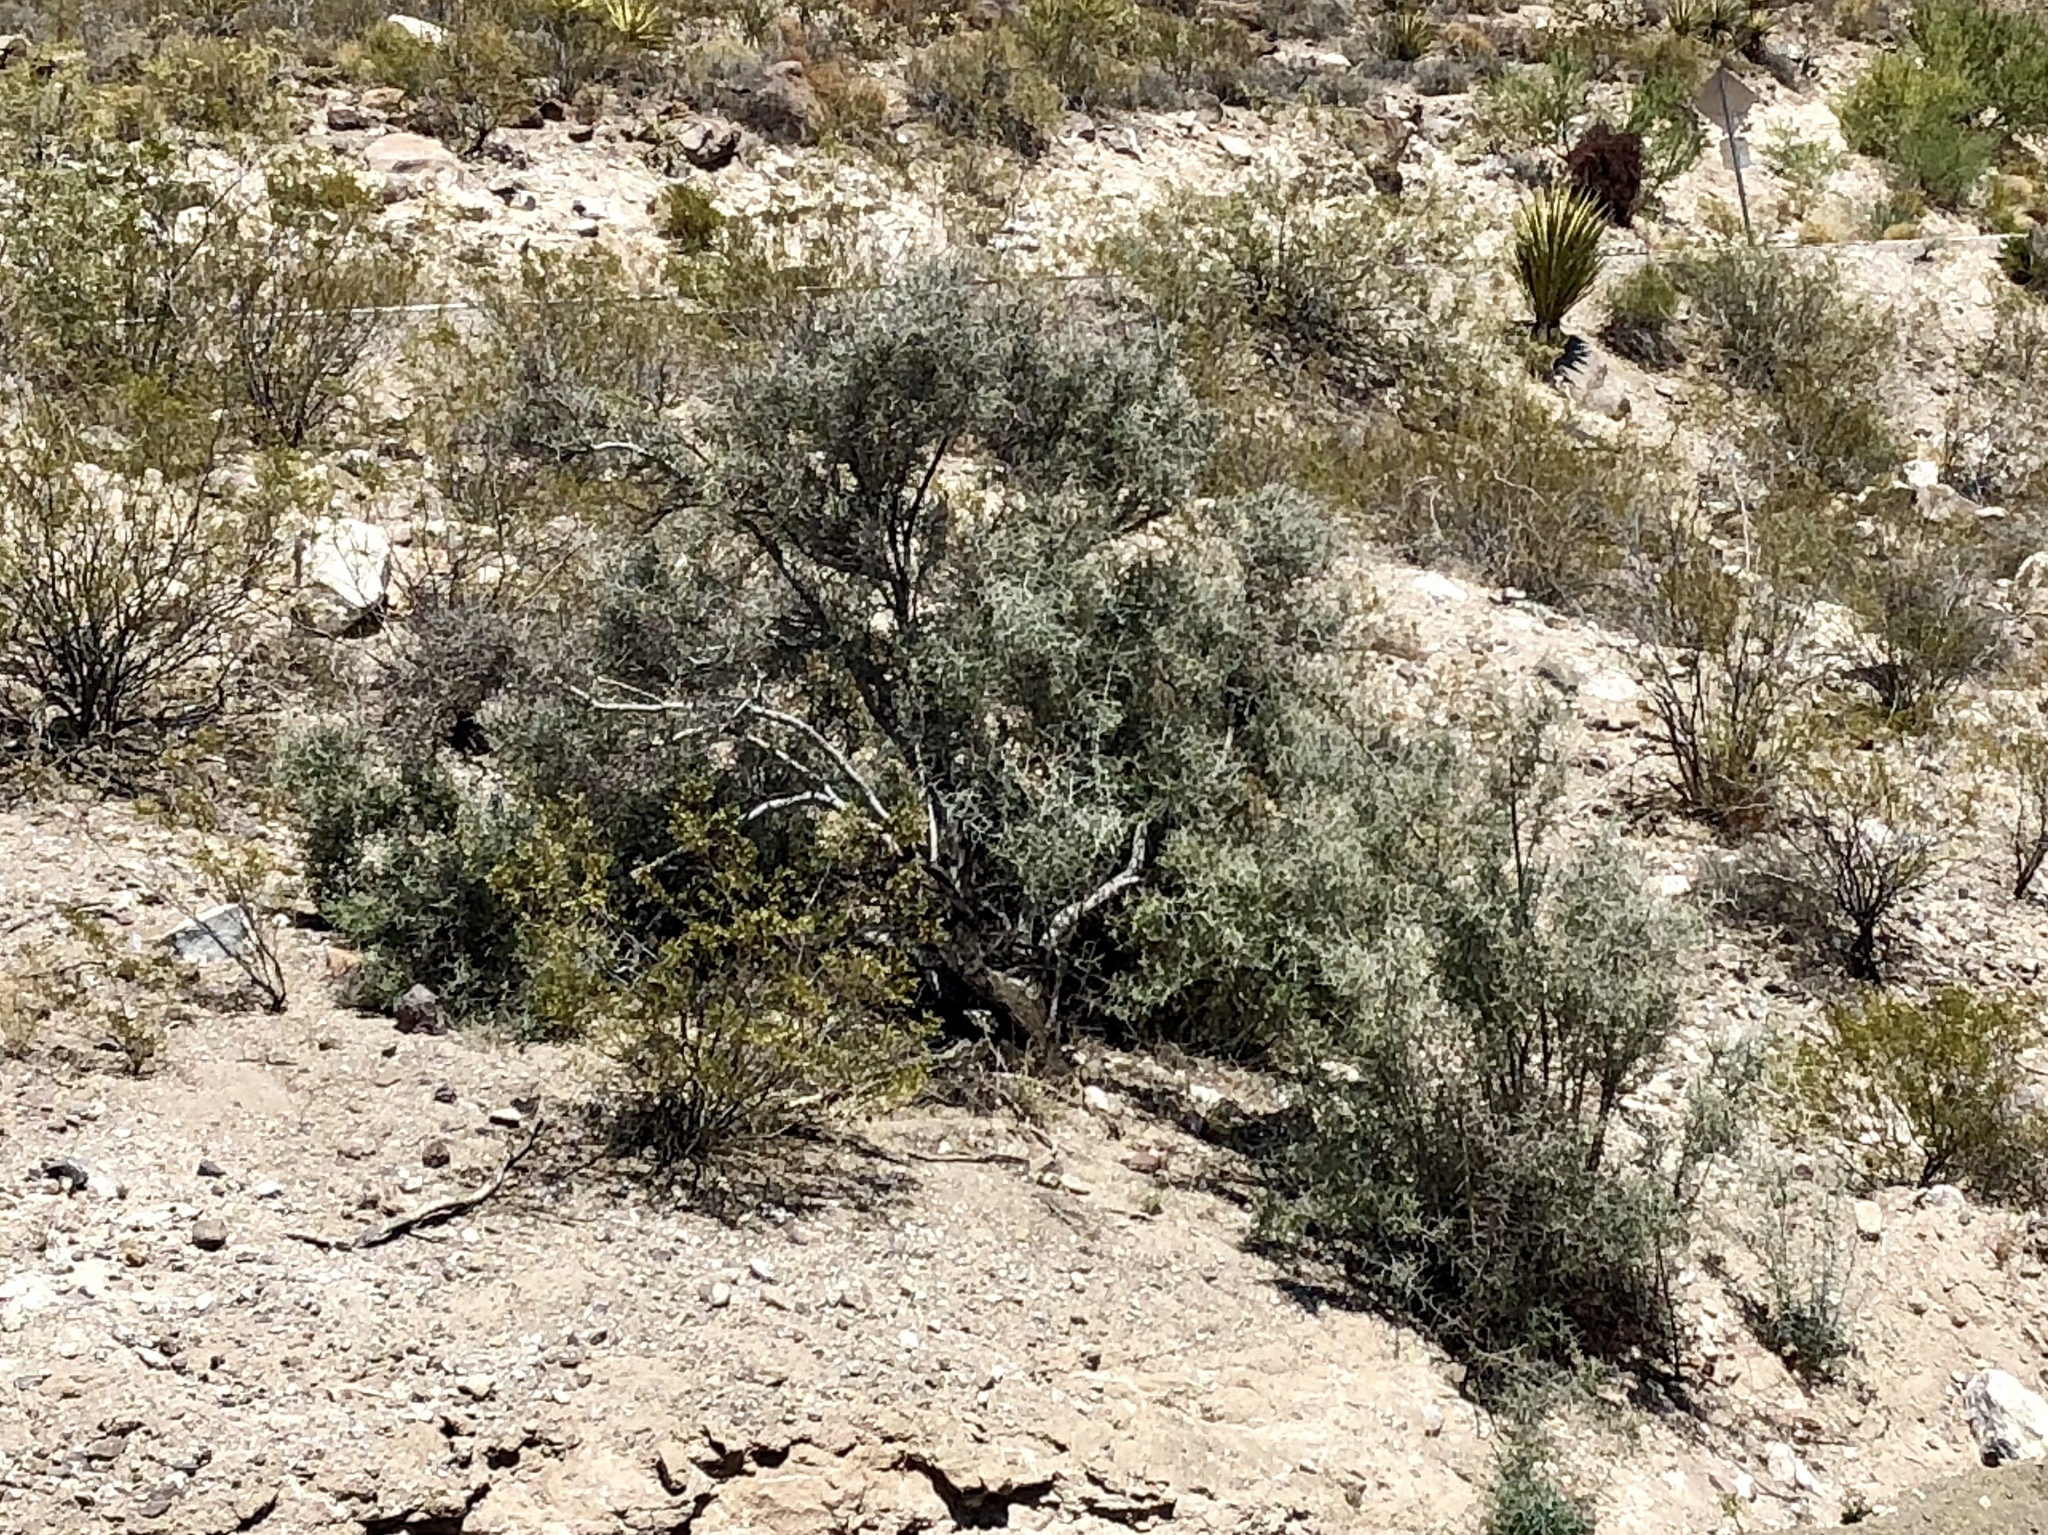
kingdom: Plantae
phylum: Tracheophyta
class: Magnoliopsida
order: Fabales
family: Fabaceae
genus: Psorothamnus
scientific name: Psorothamnus spinosus
